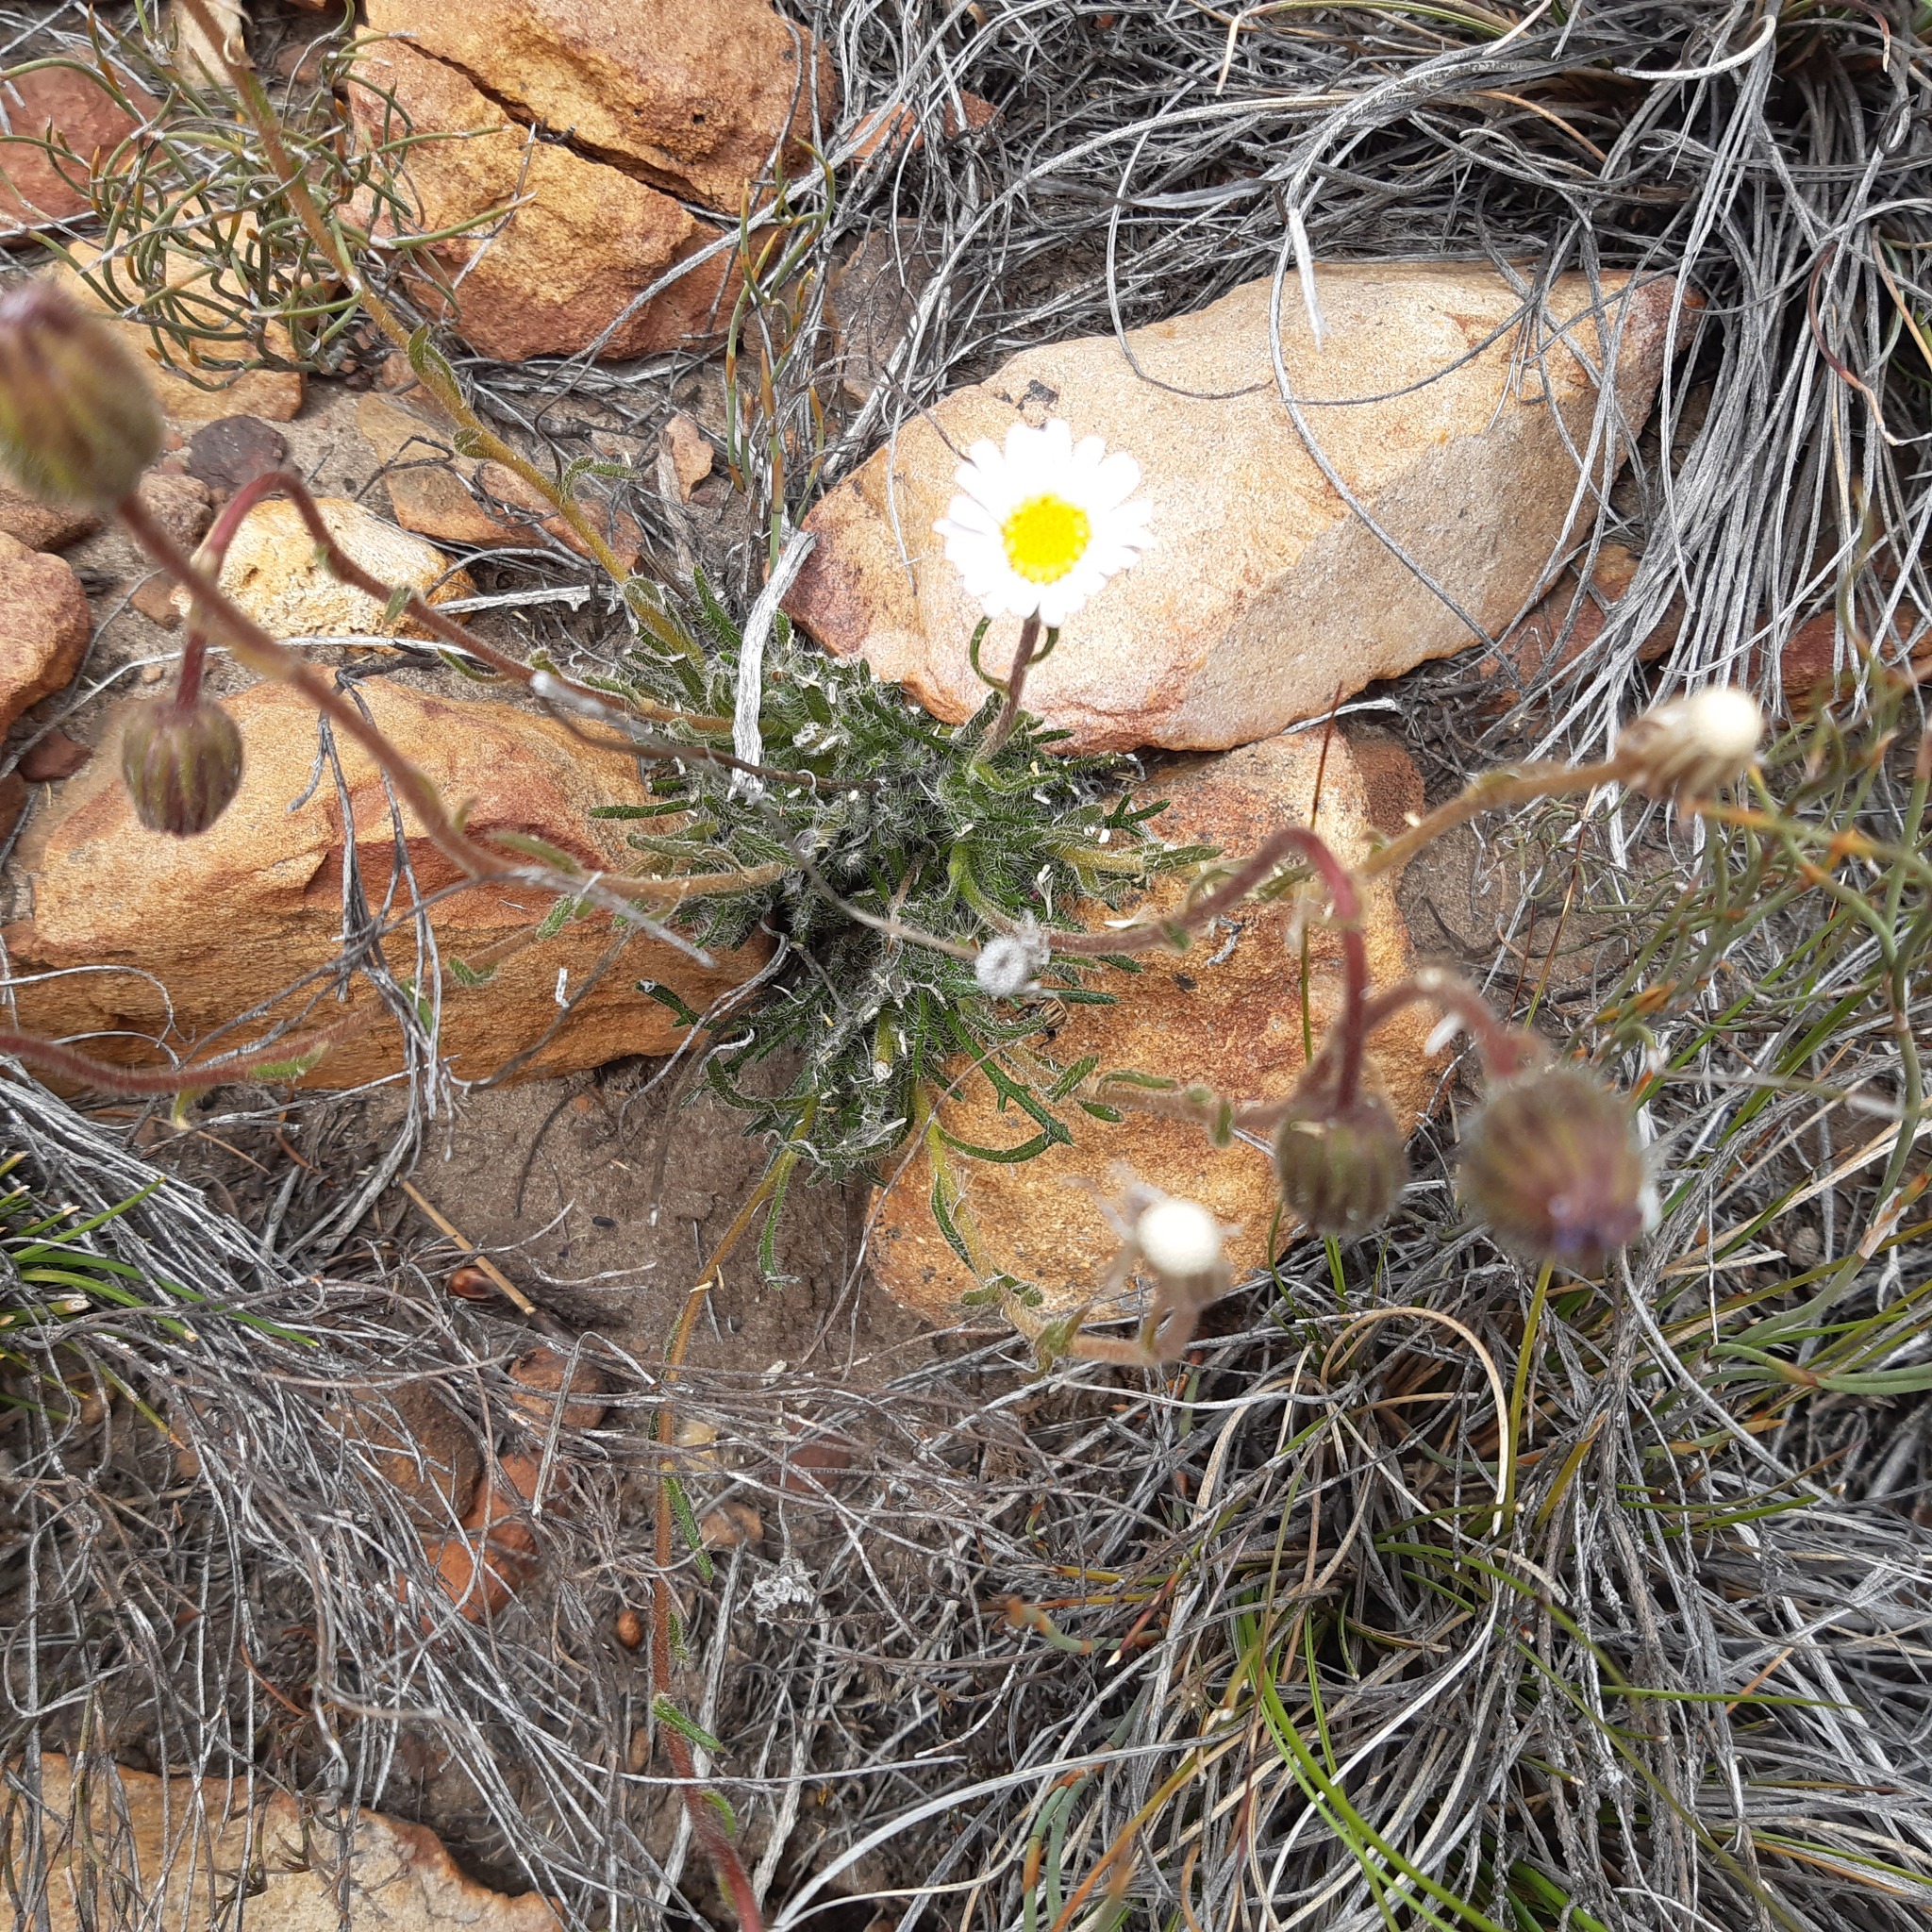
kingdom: Plantae
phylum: Tracheophyta
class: Magnoliopsida
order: Asterales
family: Asteraceae
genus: Zyrphelis
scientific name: Zyrphelis pilosella
